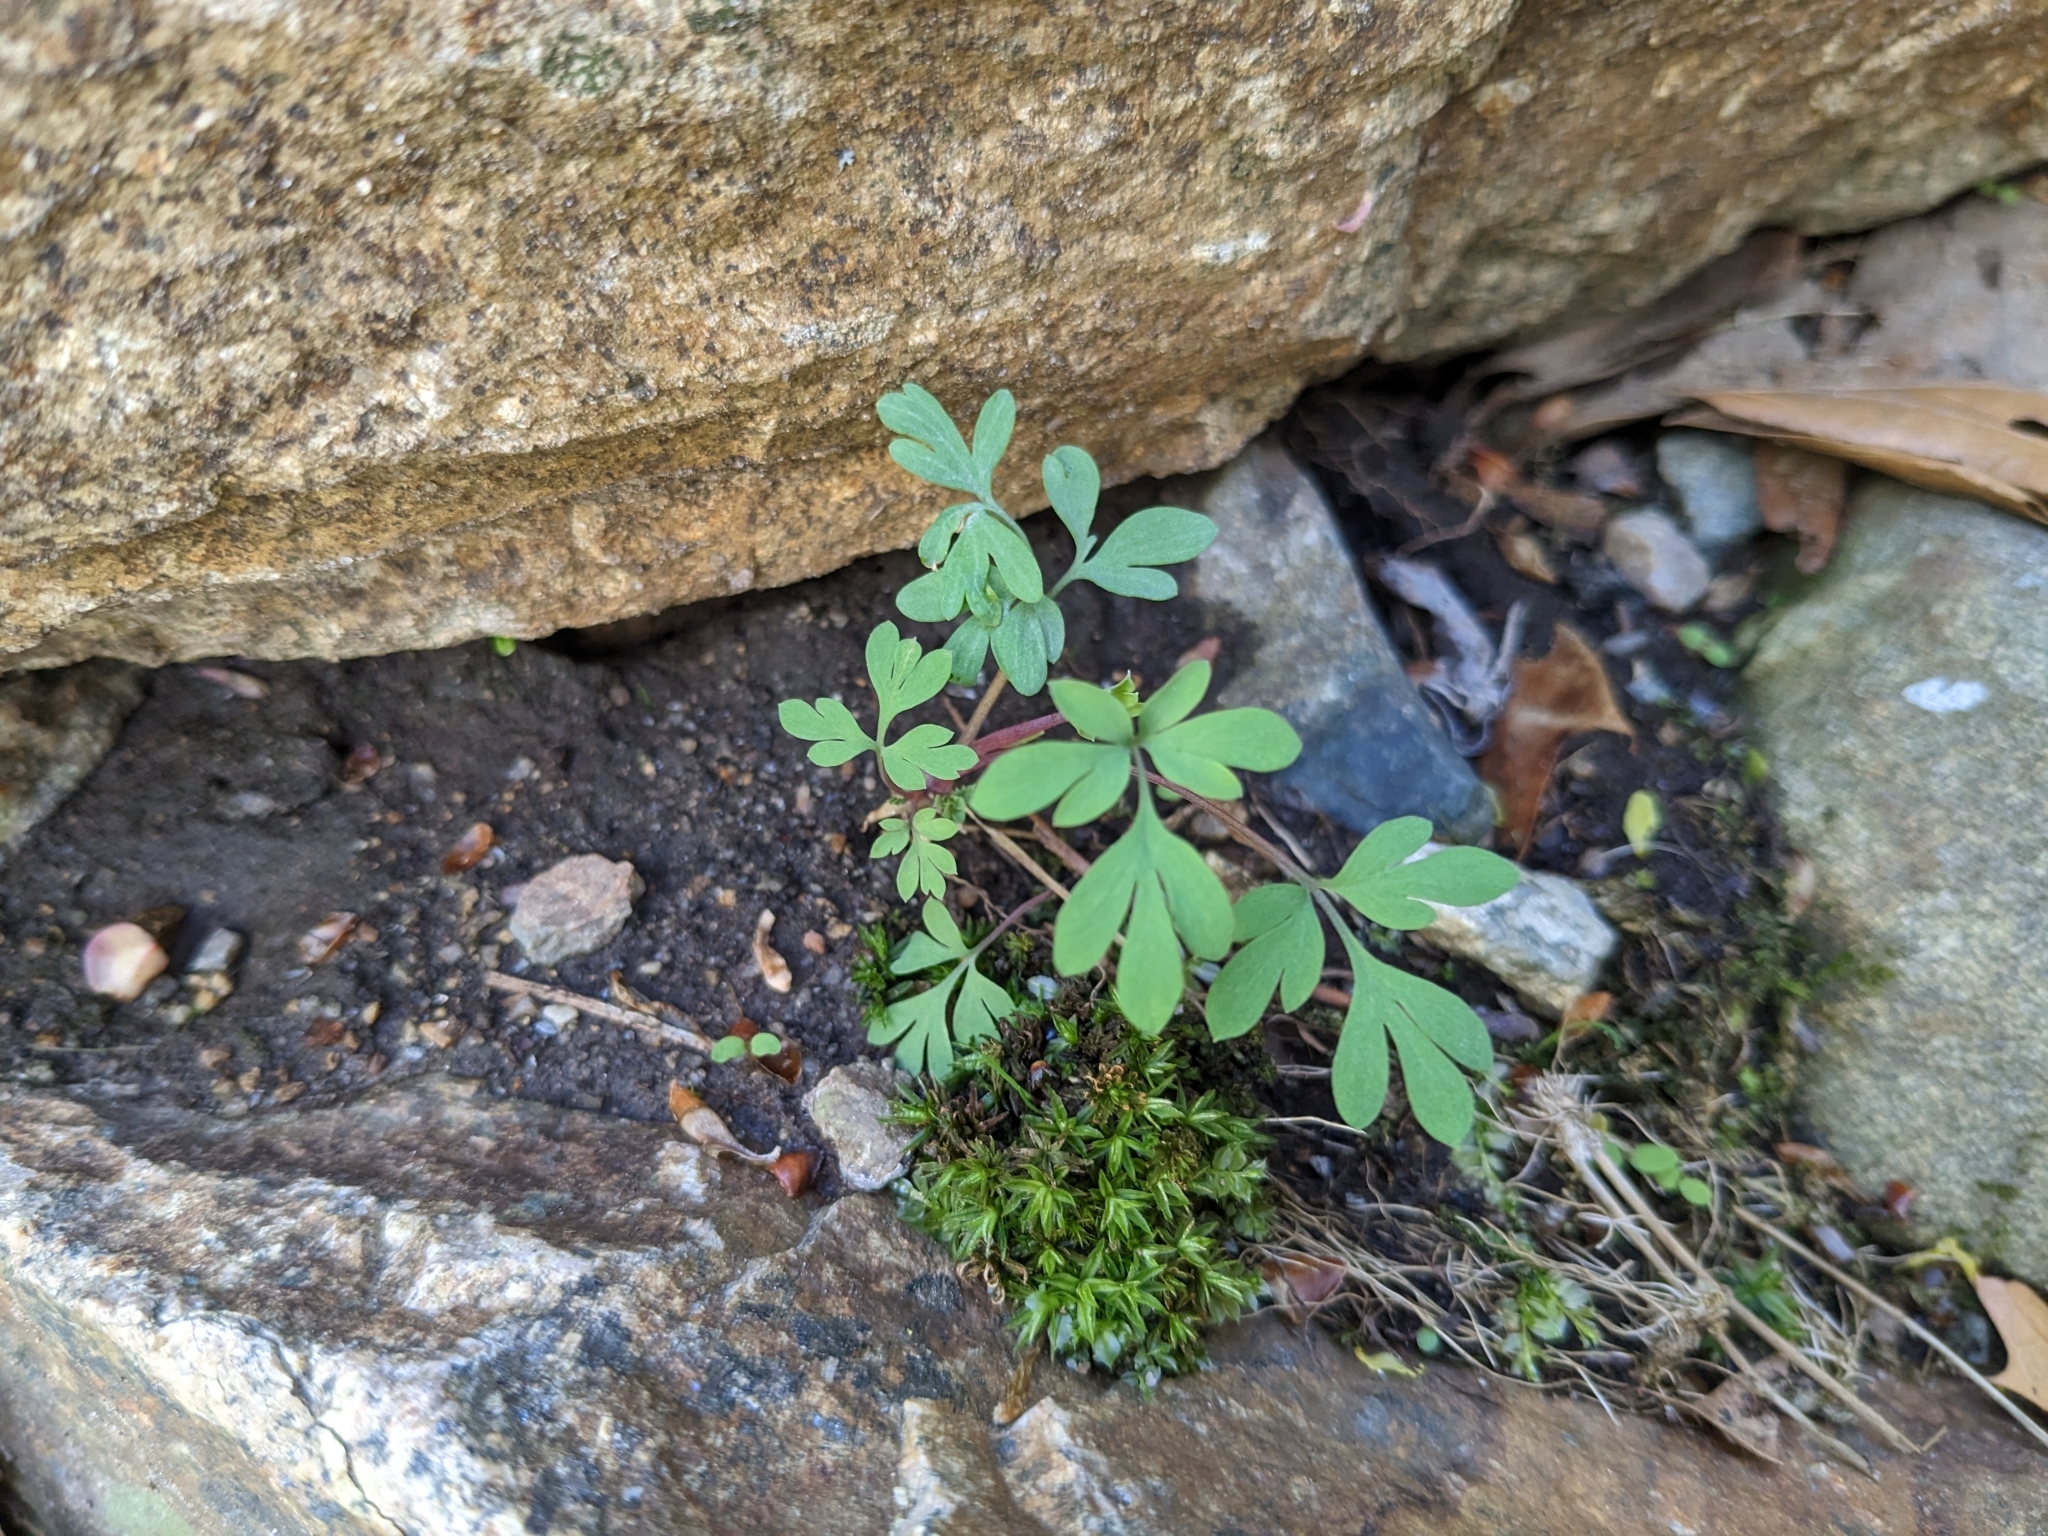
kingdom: Plantae
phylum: Tracheophyta
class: Magnoliopsida
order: Ranunculales
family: Papaveraceae
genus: Capnoides
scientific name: Capnoides sempervirens
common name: Rock harlequin
